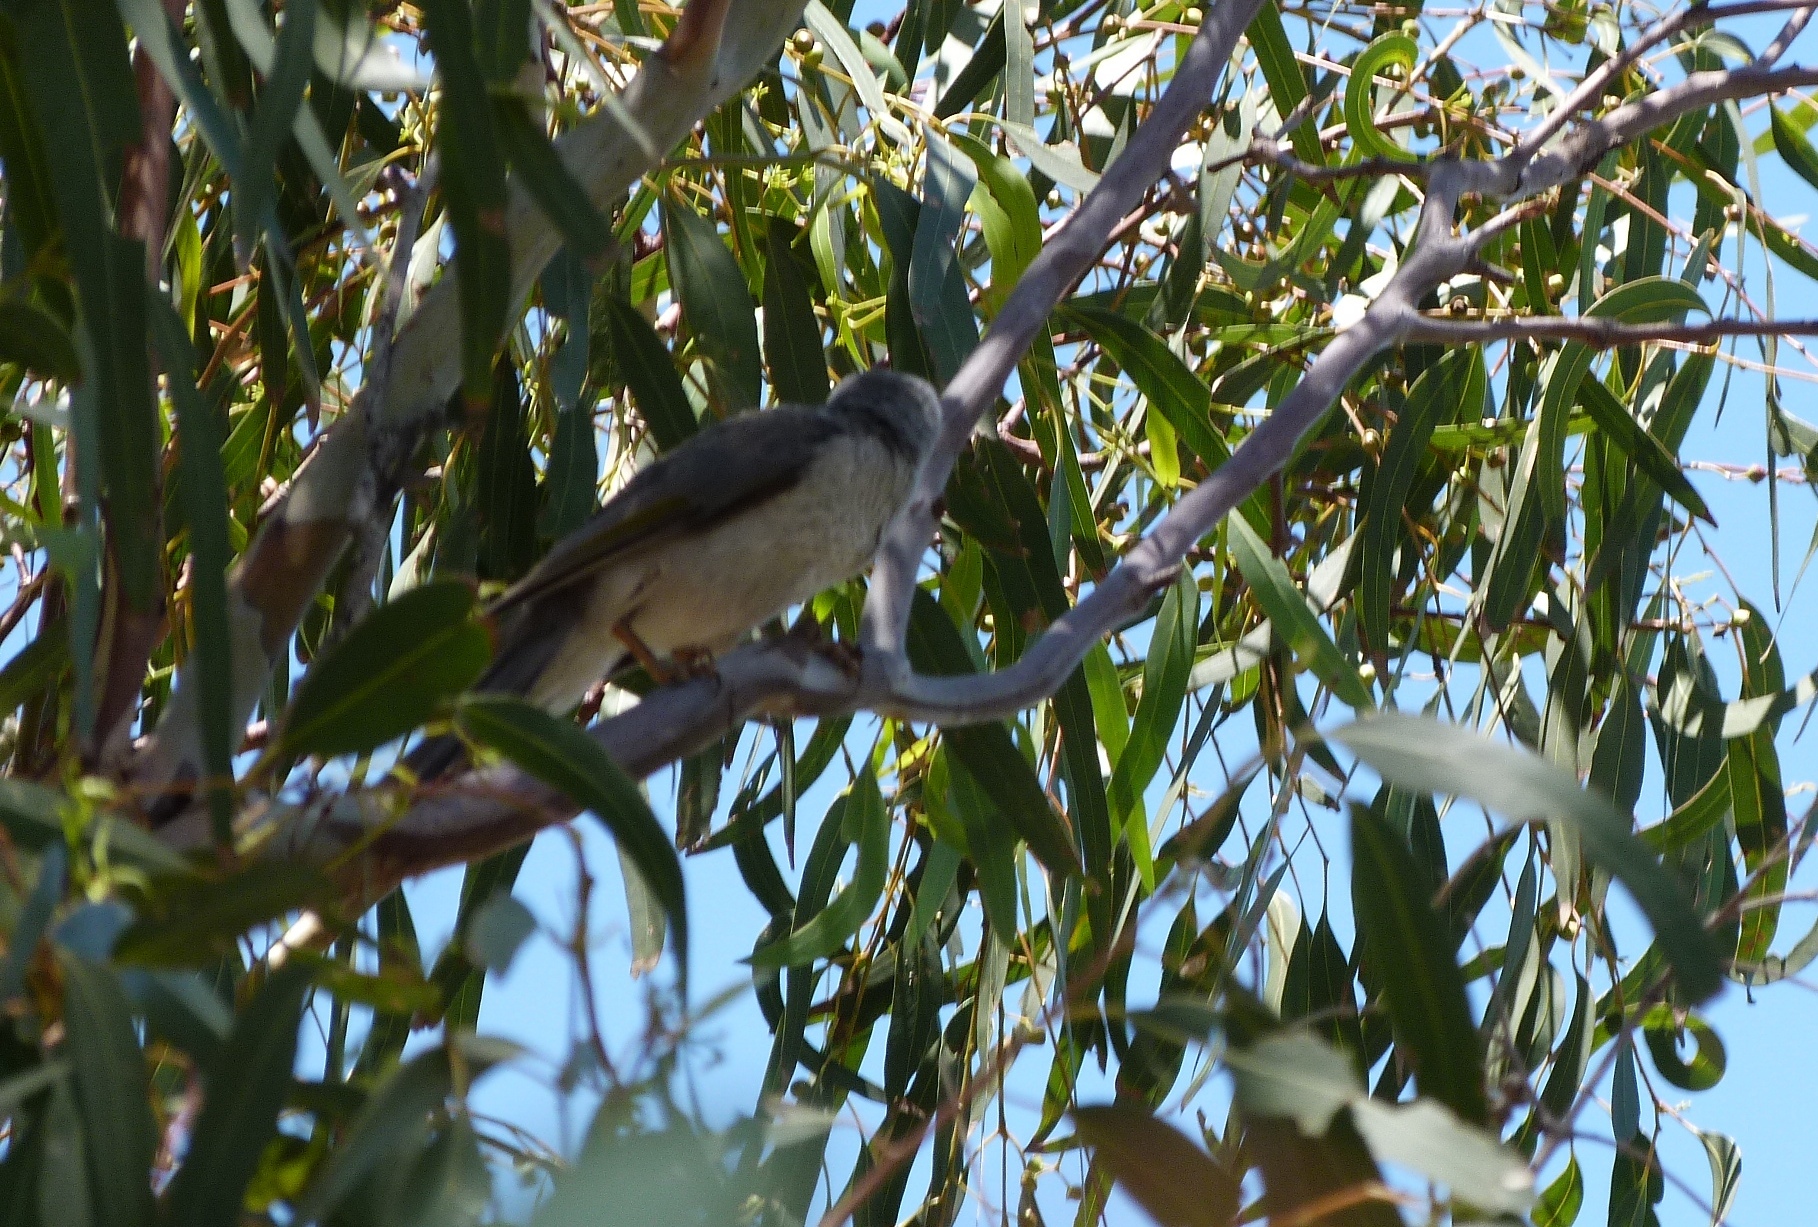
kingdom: Animalia
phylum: Chordata
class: Aves
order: Passeriformes
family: Meliphagidae
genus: Manorina
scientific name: Manorina melanocephala
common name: Noisy miner
